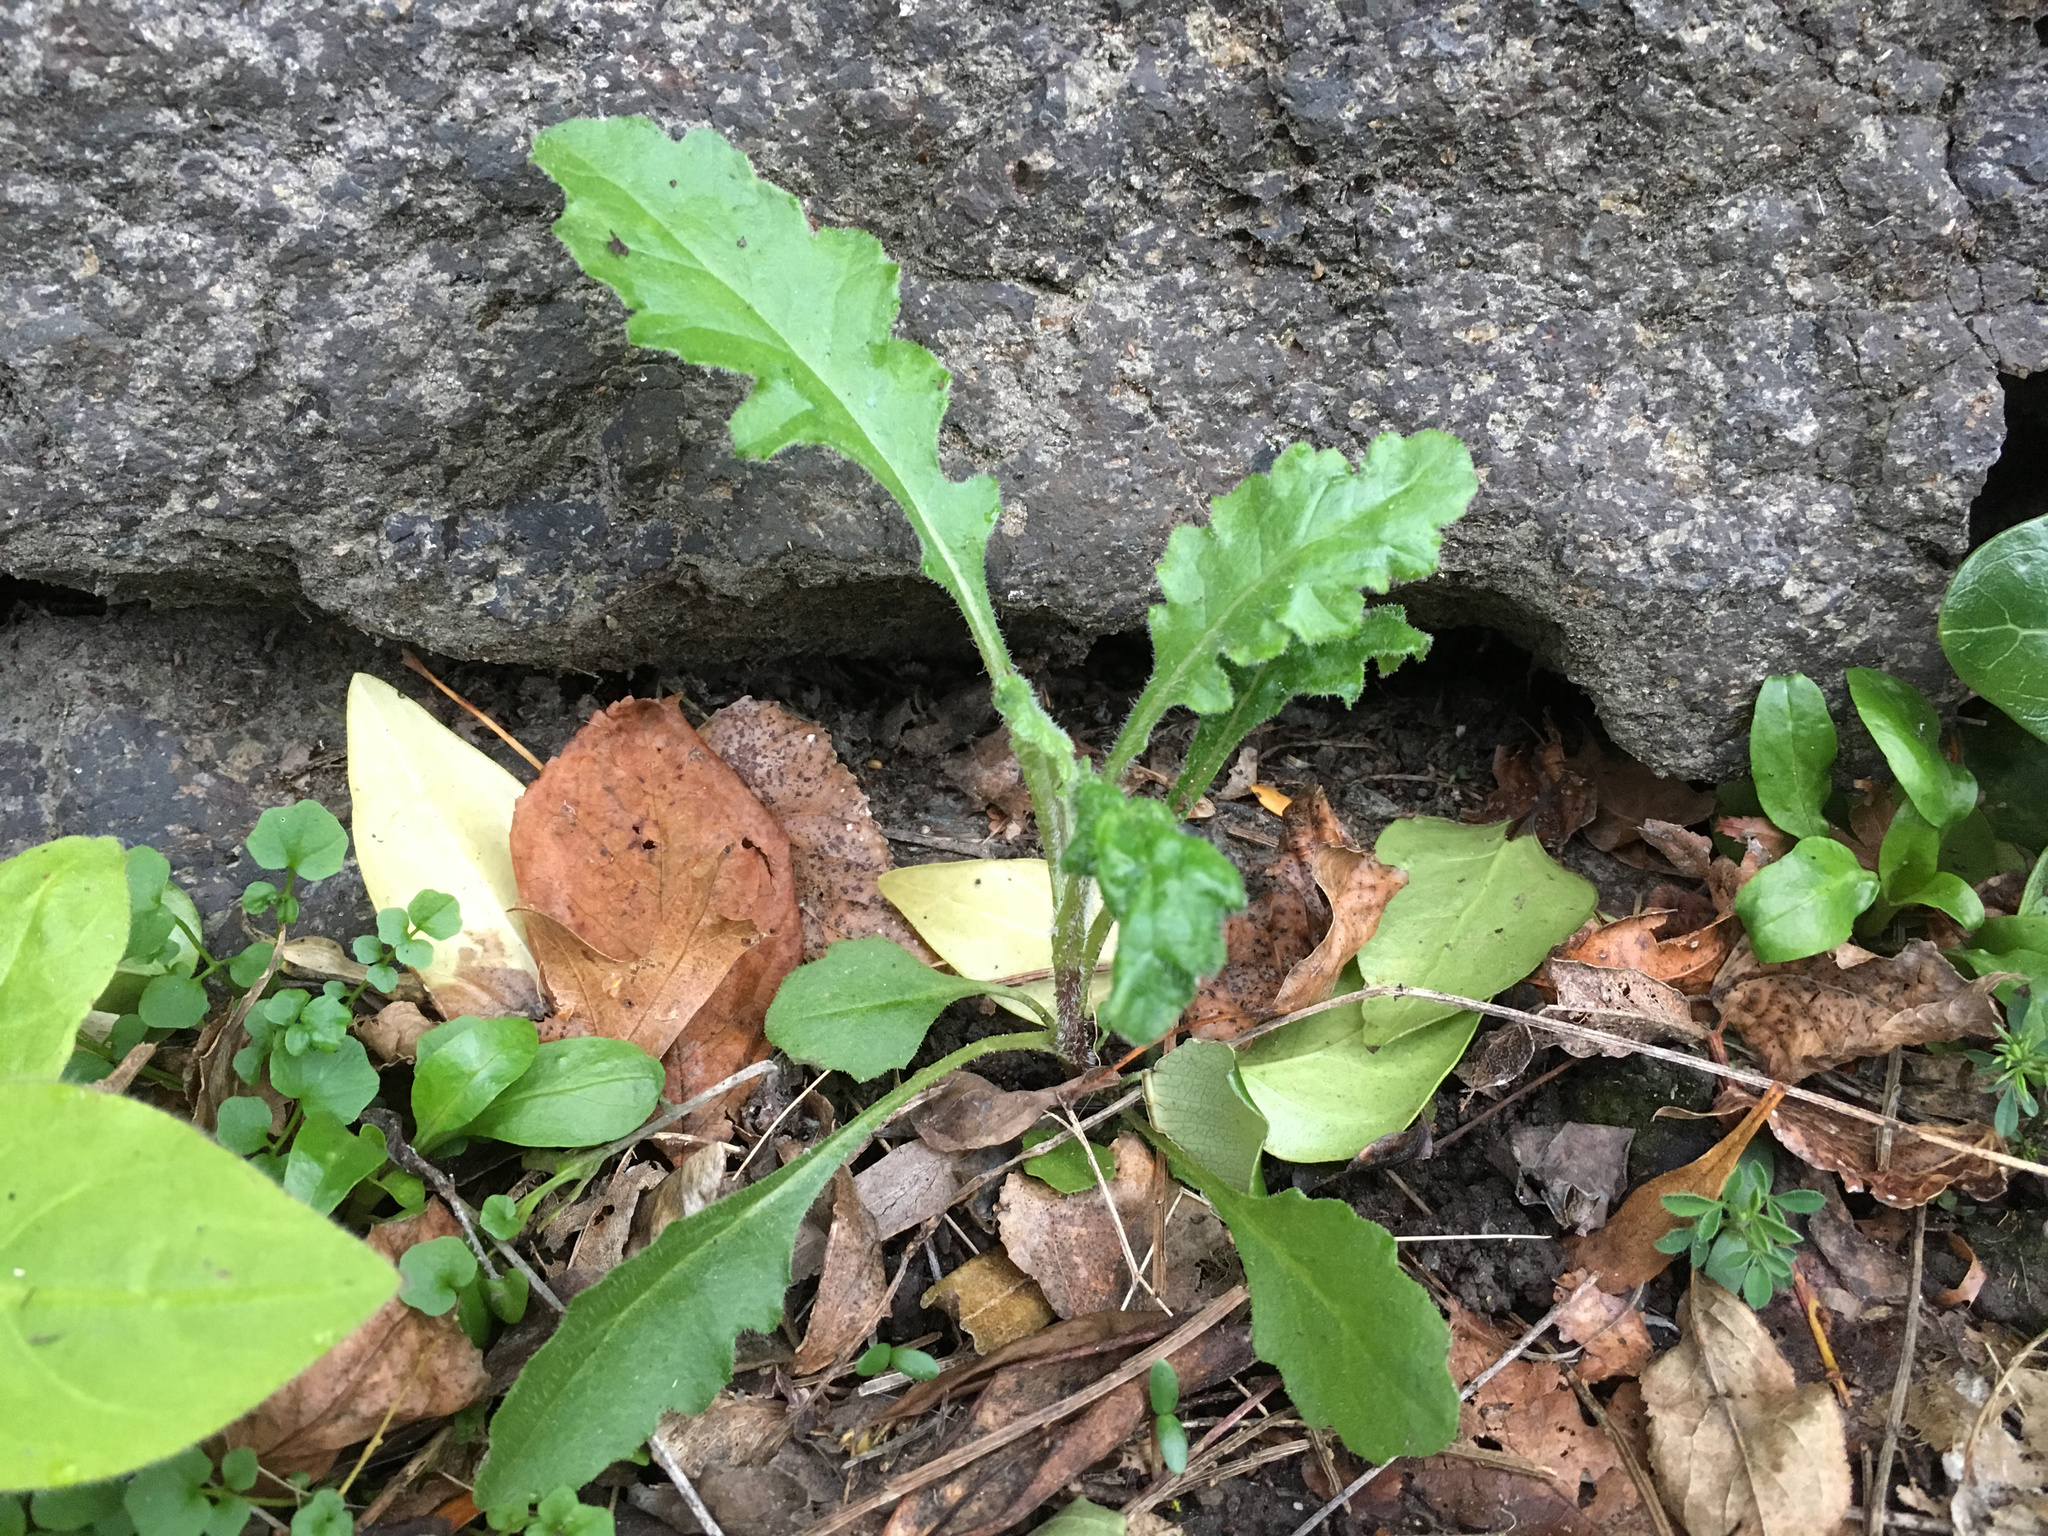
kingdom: Plantae
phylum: Tracheophyta
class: Magnoliopsida
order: Asterales
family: Asteraceae
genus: Senecio
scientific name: Senecio glomeratus
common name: Cutleaf burnweed
